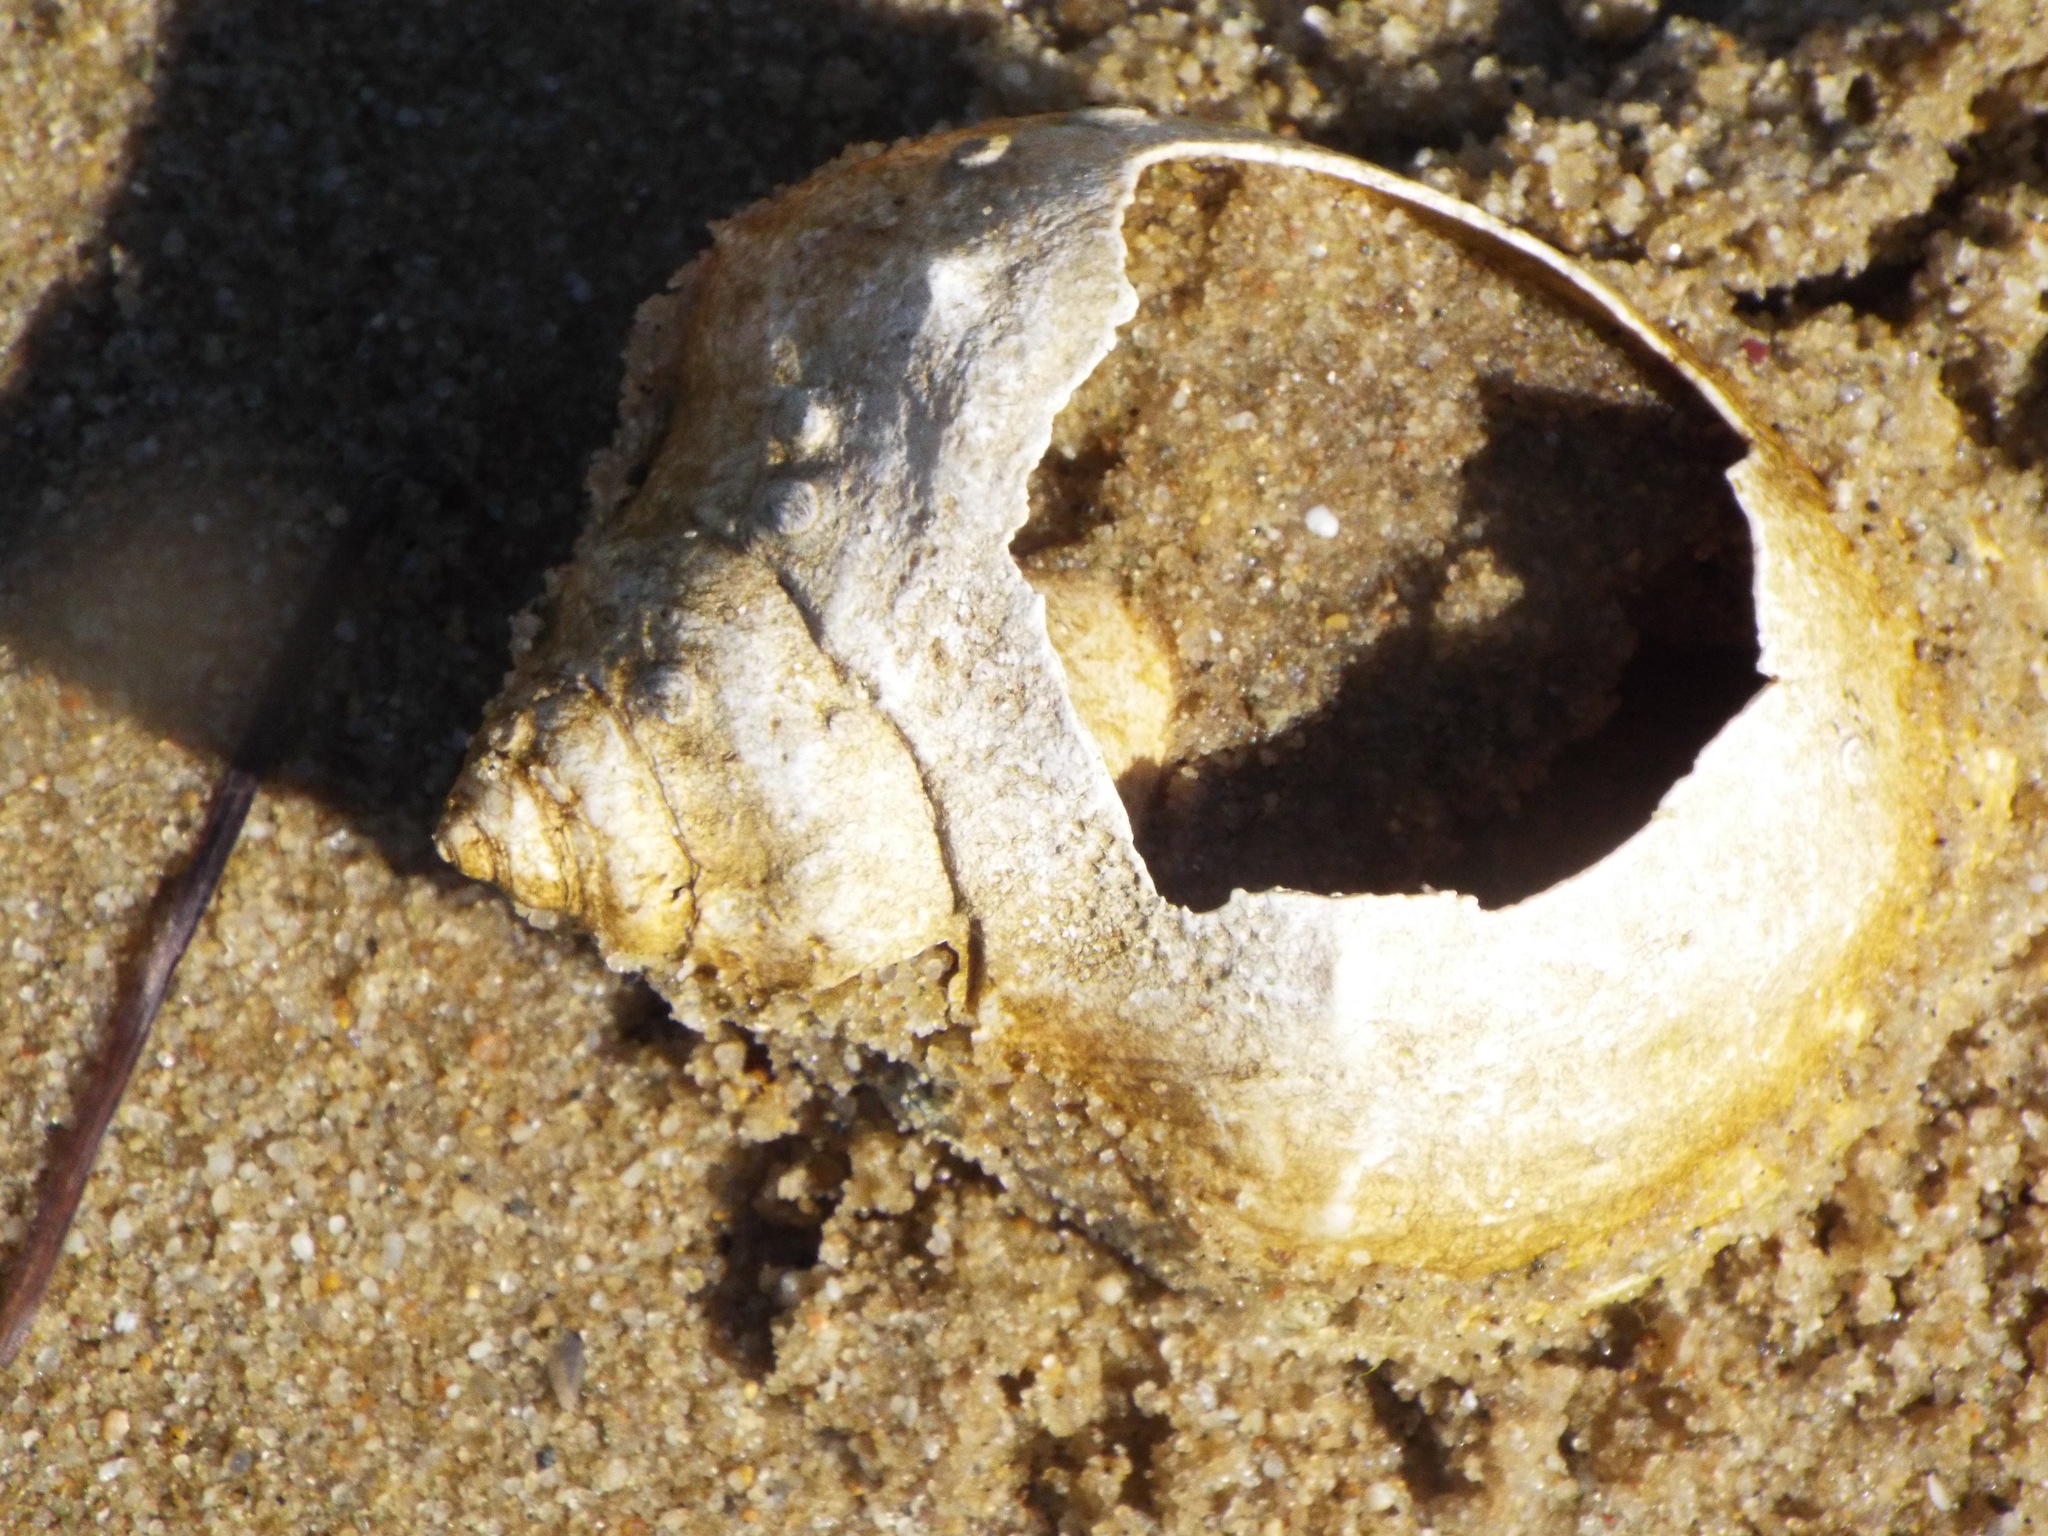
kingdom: Animalia
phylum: Mollusca
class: Gastropoda
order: Neogastropoda
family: Busyconidae
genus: Busycon
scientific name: Busycon carica
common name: Knobbed whelk
